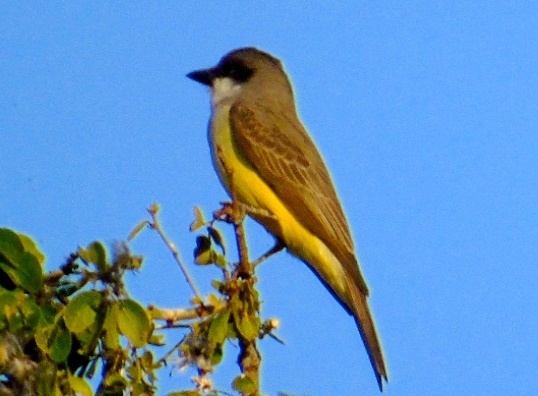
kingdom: Animalia
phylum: Chordata
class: Aves
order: Passeriformes
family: Tyrannidae
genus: Tyrannus
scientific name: Tyrannus crassirostris
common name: Thick-billed kingbird
